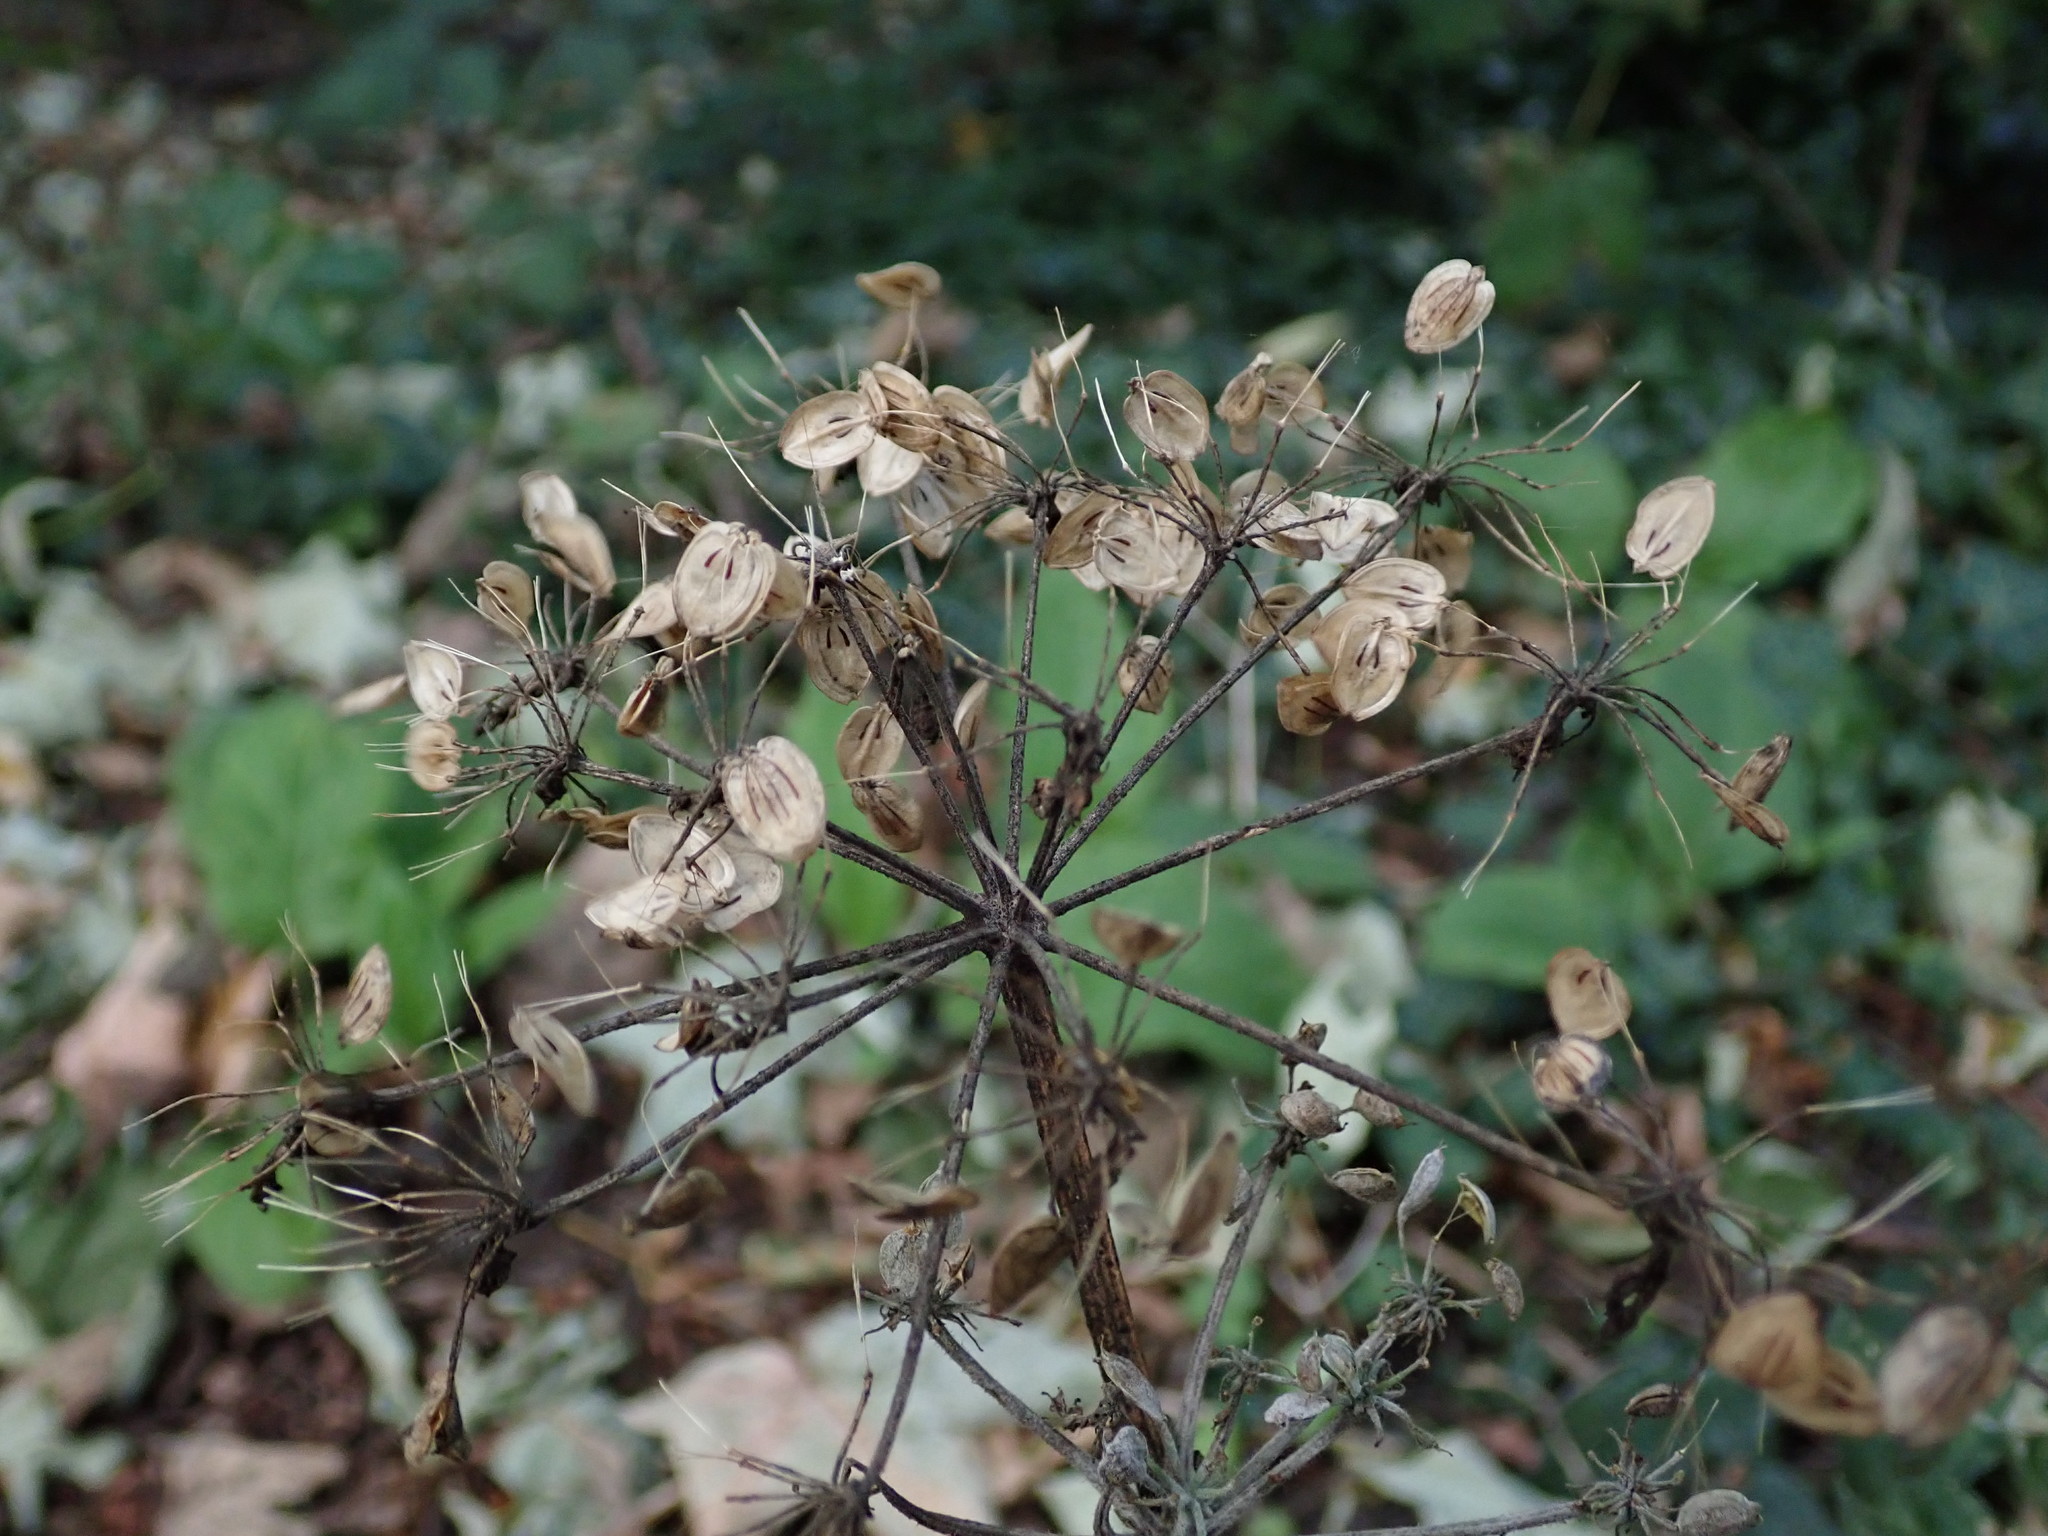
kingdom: Plantae
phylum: Tracheophyta
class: Magnoliopsida
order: Apiales
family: Apiaceae
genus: Heracleum
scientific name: Heracleum sphondylium
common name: Hogweed
